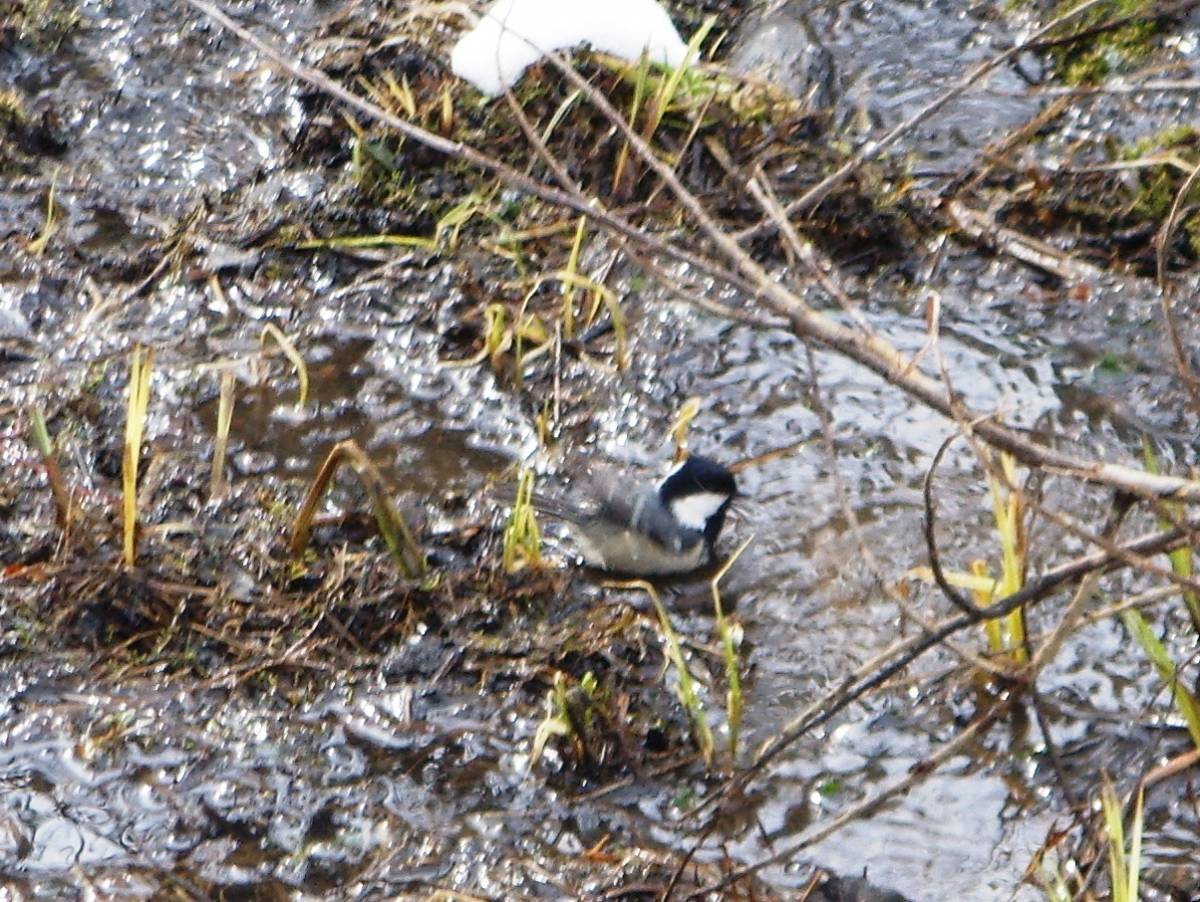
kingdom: Animalia
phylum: Chordata
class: Aves
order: Passeriformes
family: Paridae
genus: Periparus
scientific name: Periparus ater
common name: Coal tit
